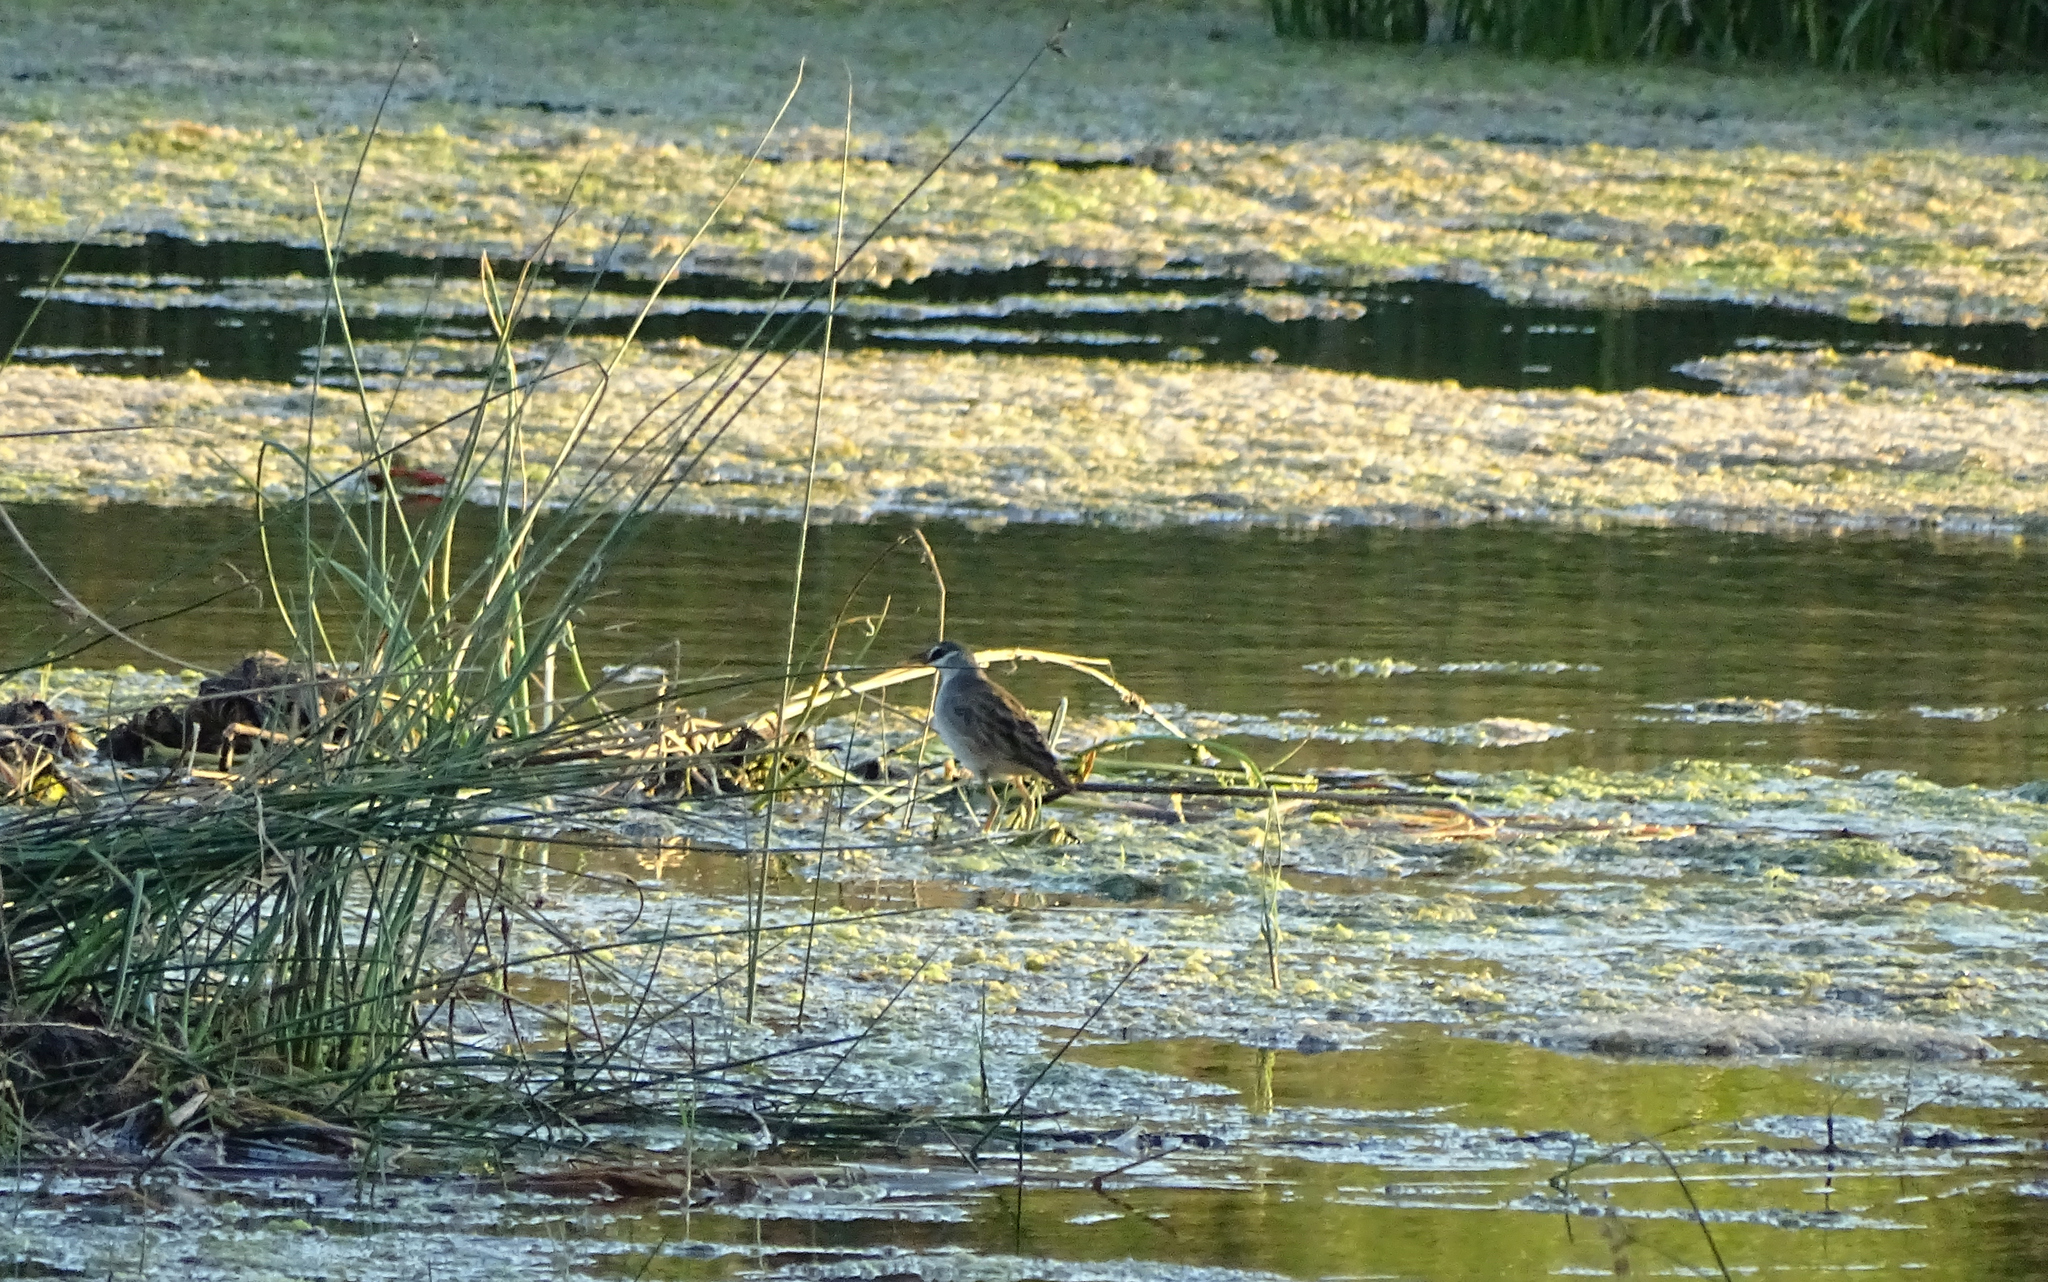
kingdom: Animalia
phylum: Chordata
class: Aves
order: Gruiformes
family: Rallidae
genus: Porzana
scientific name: Porzana cinerea
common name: White-browed crake
